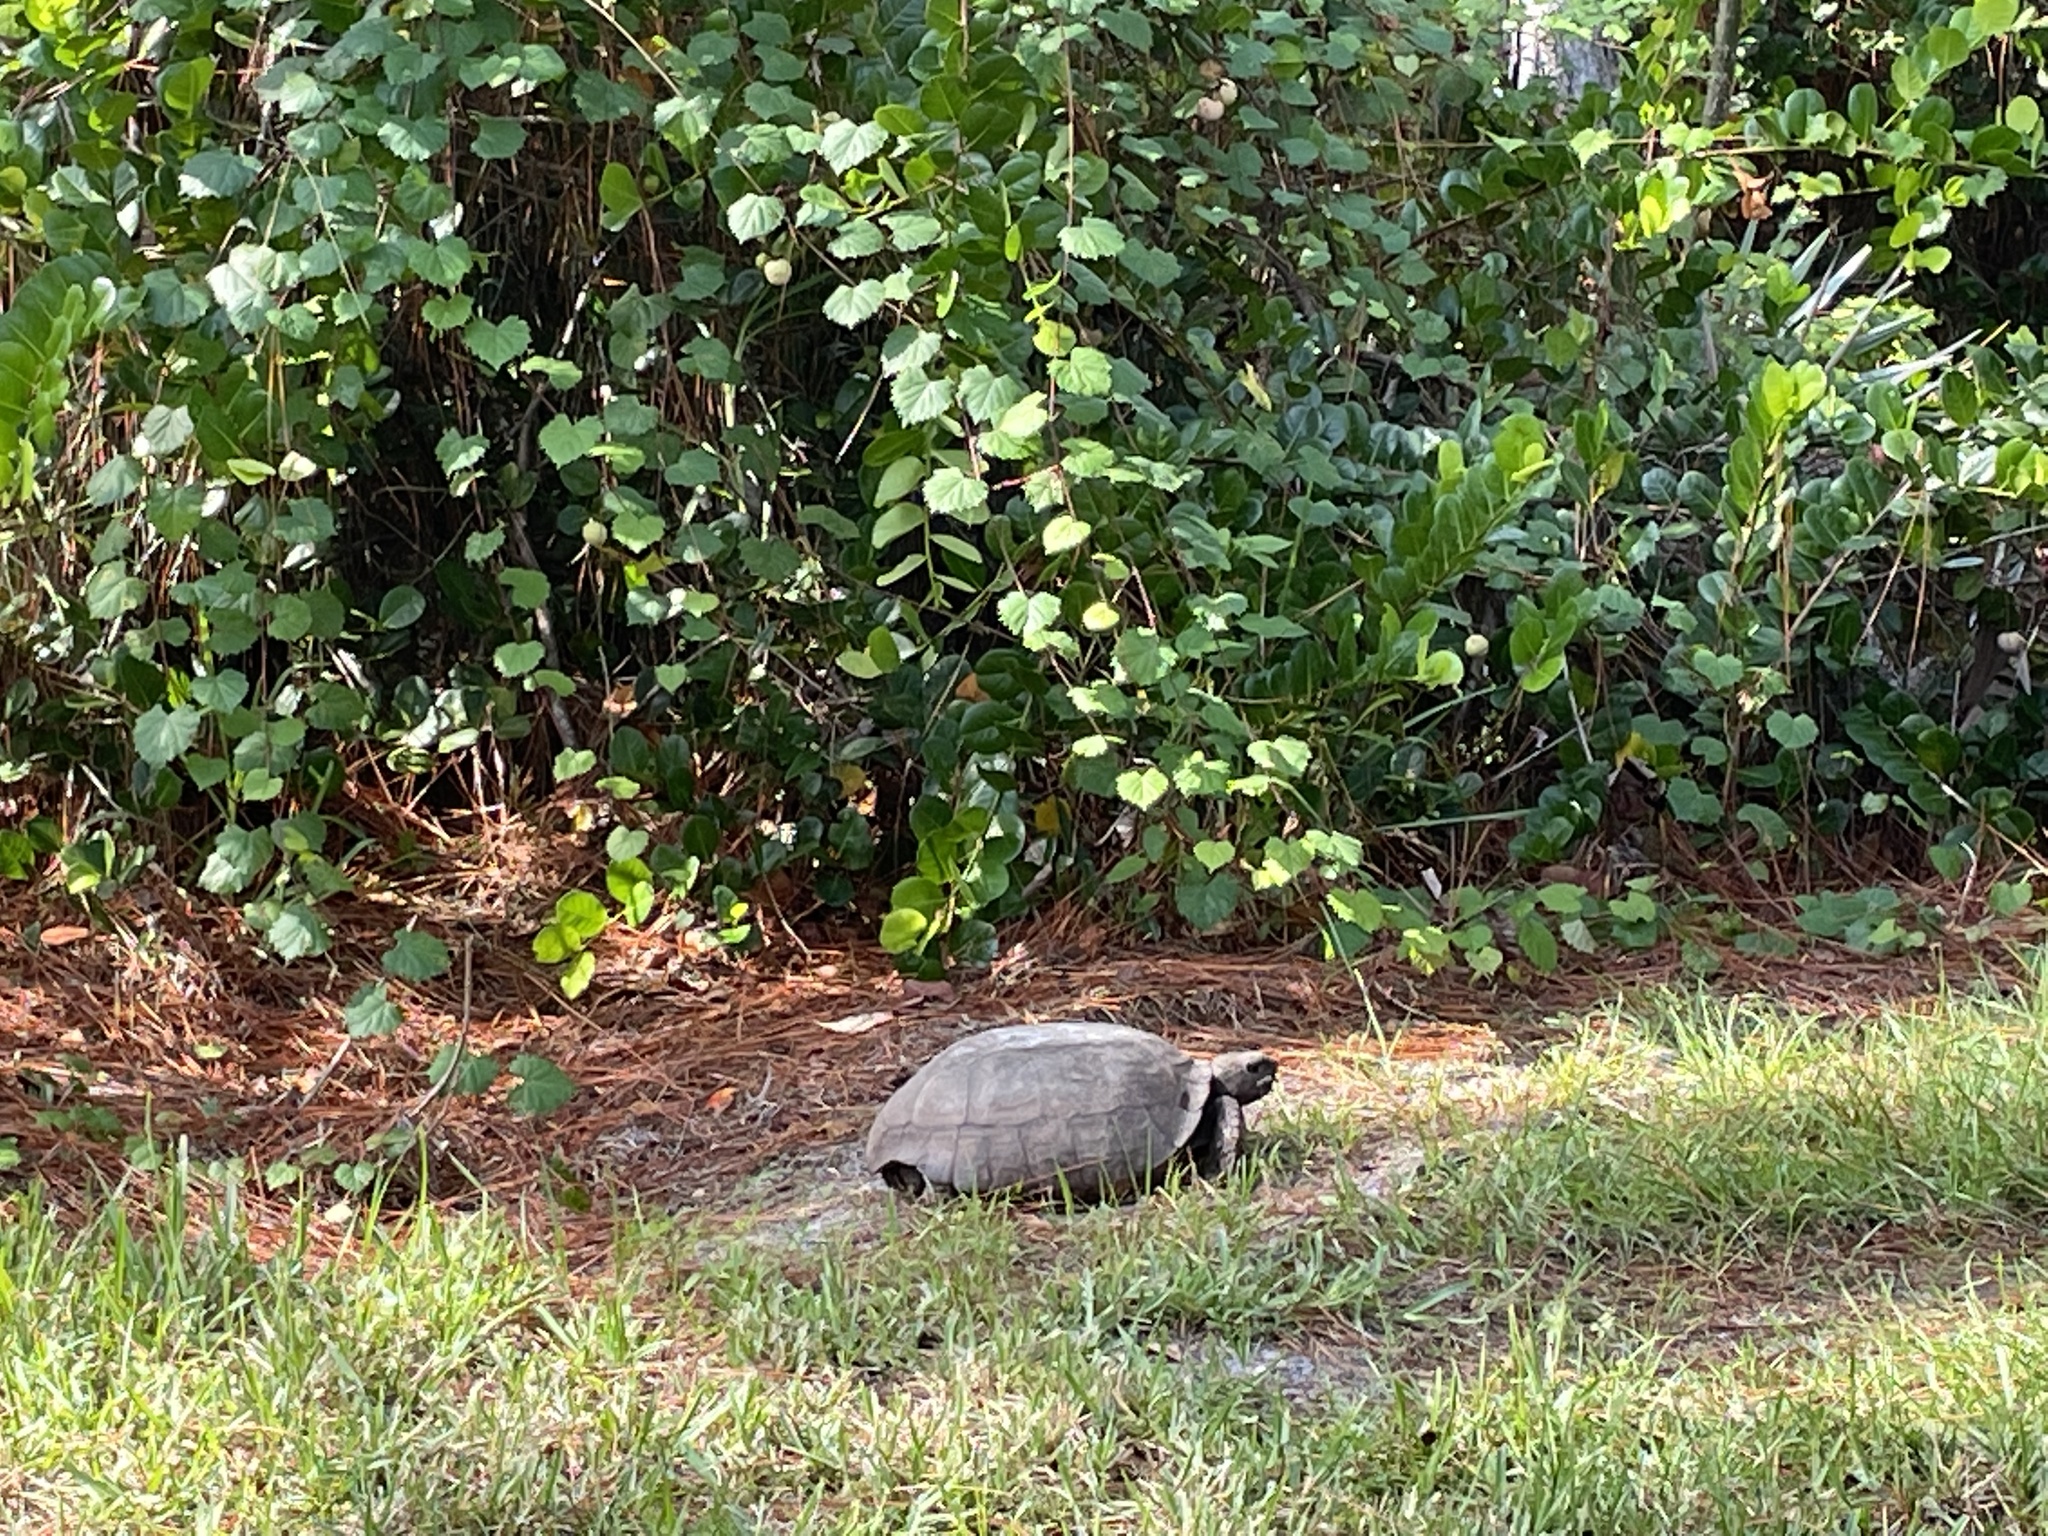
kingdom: Animalia
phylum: Chordata
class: Testudines
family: Testudinidae
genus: Gopherus
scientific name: Gopherus polyphemus
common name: Florida gopher tortoise
